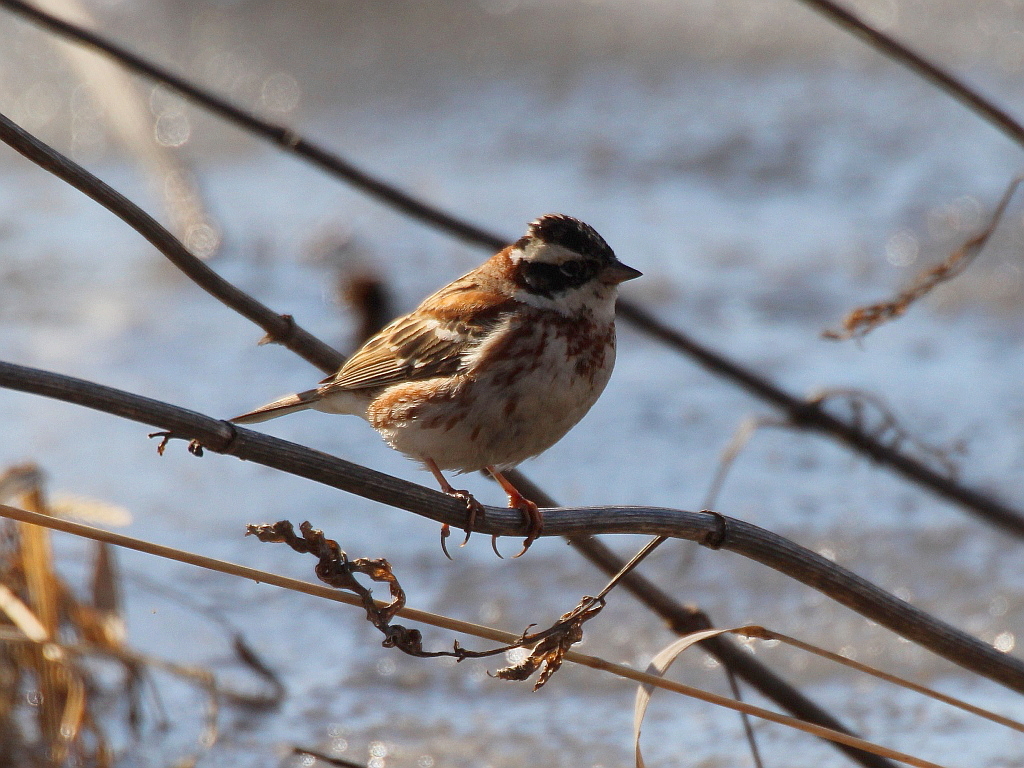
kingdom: Animalia
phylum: Chordata
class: Aves
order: Passeriformes
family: Emberizidae
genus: Emberiza
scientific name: Emberiza rustica
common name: Rustic bunting
